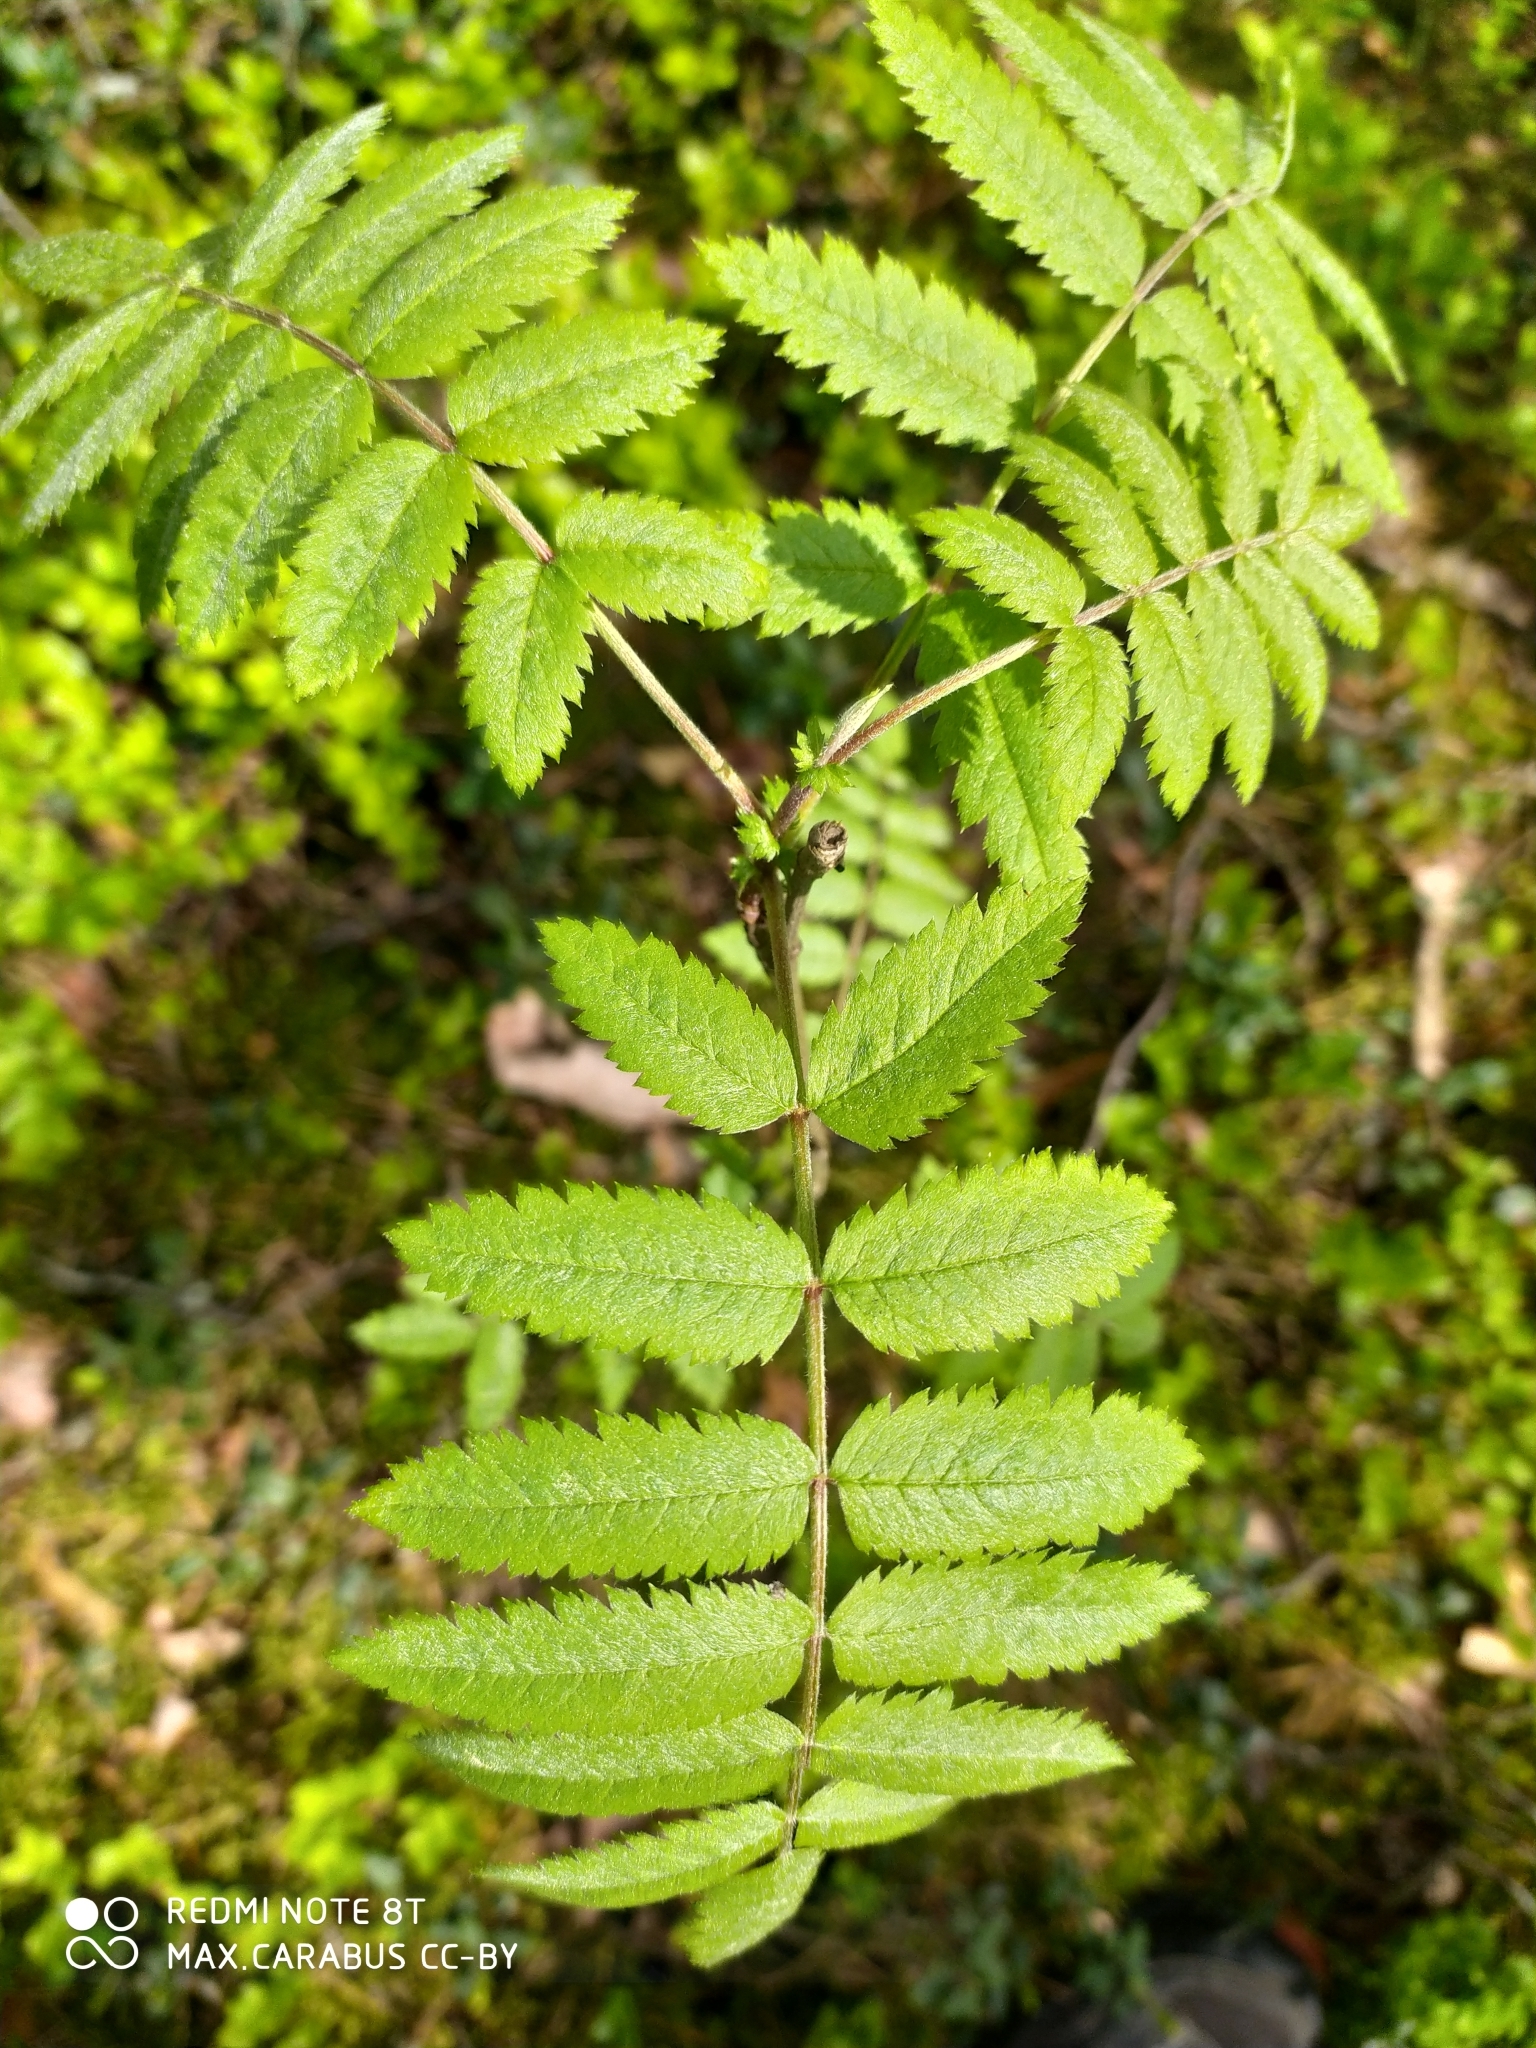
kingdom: Plantae
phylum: Tracheophyta
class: Magnoliopsida
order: Rosales
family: Rosaceae
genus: Sorbus
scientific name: Sorbus aucuparia
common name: Rowan
